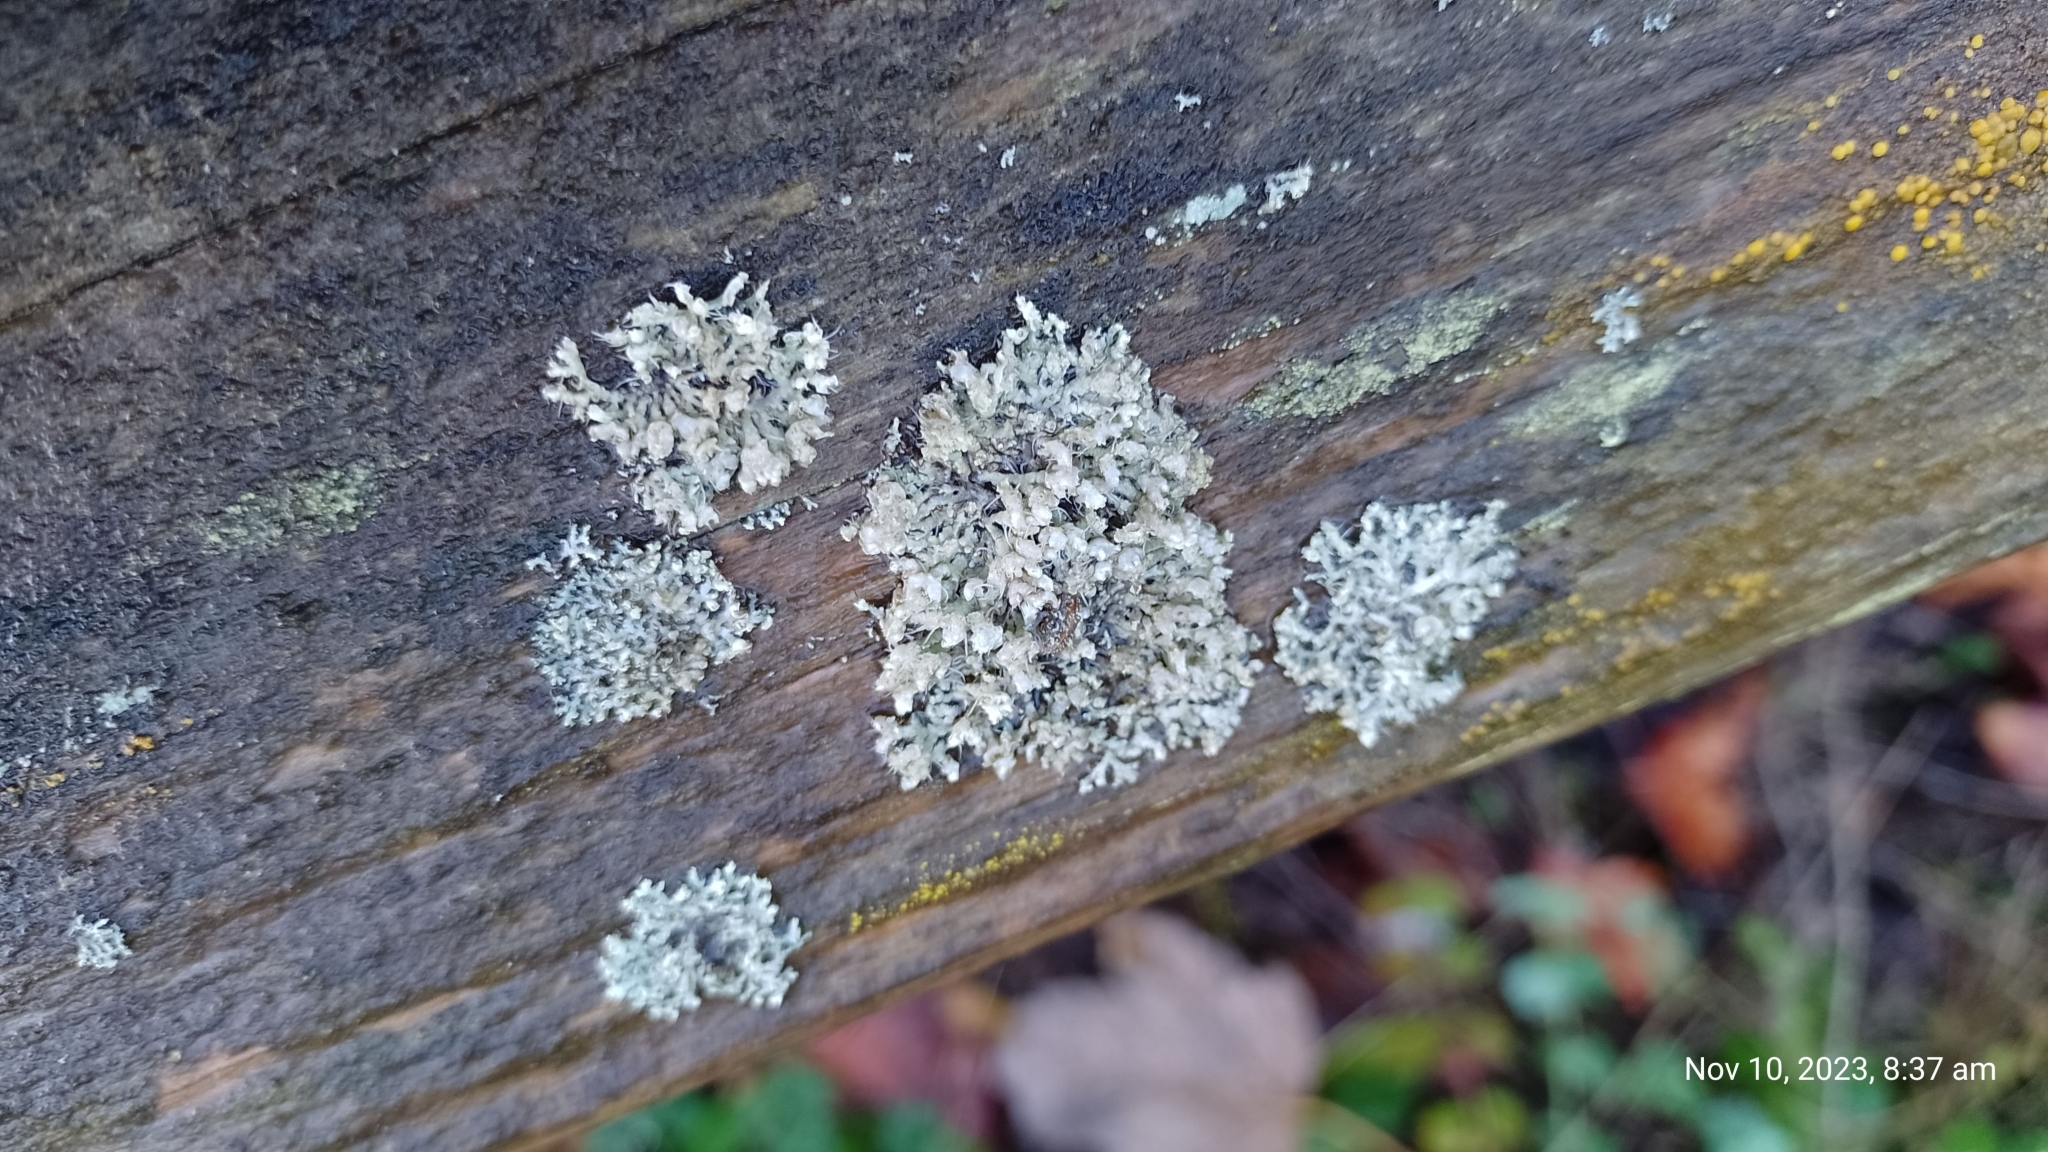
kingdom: Fungi
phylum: Ascomycota
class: Lecanoromycetes
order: Caliciales
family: Physciaceae
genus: Physcia
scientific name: Physcia adscendens
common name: Hooded rosette lichen
